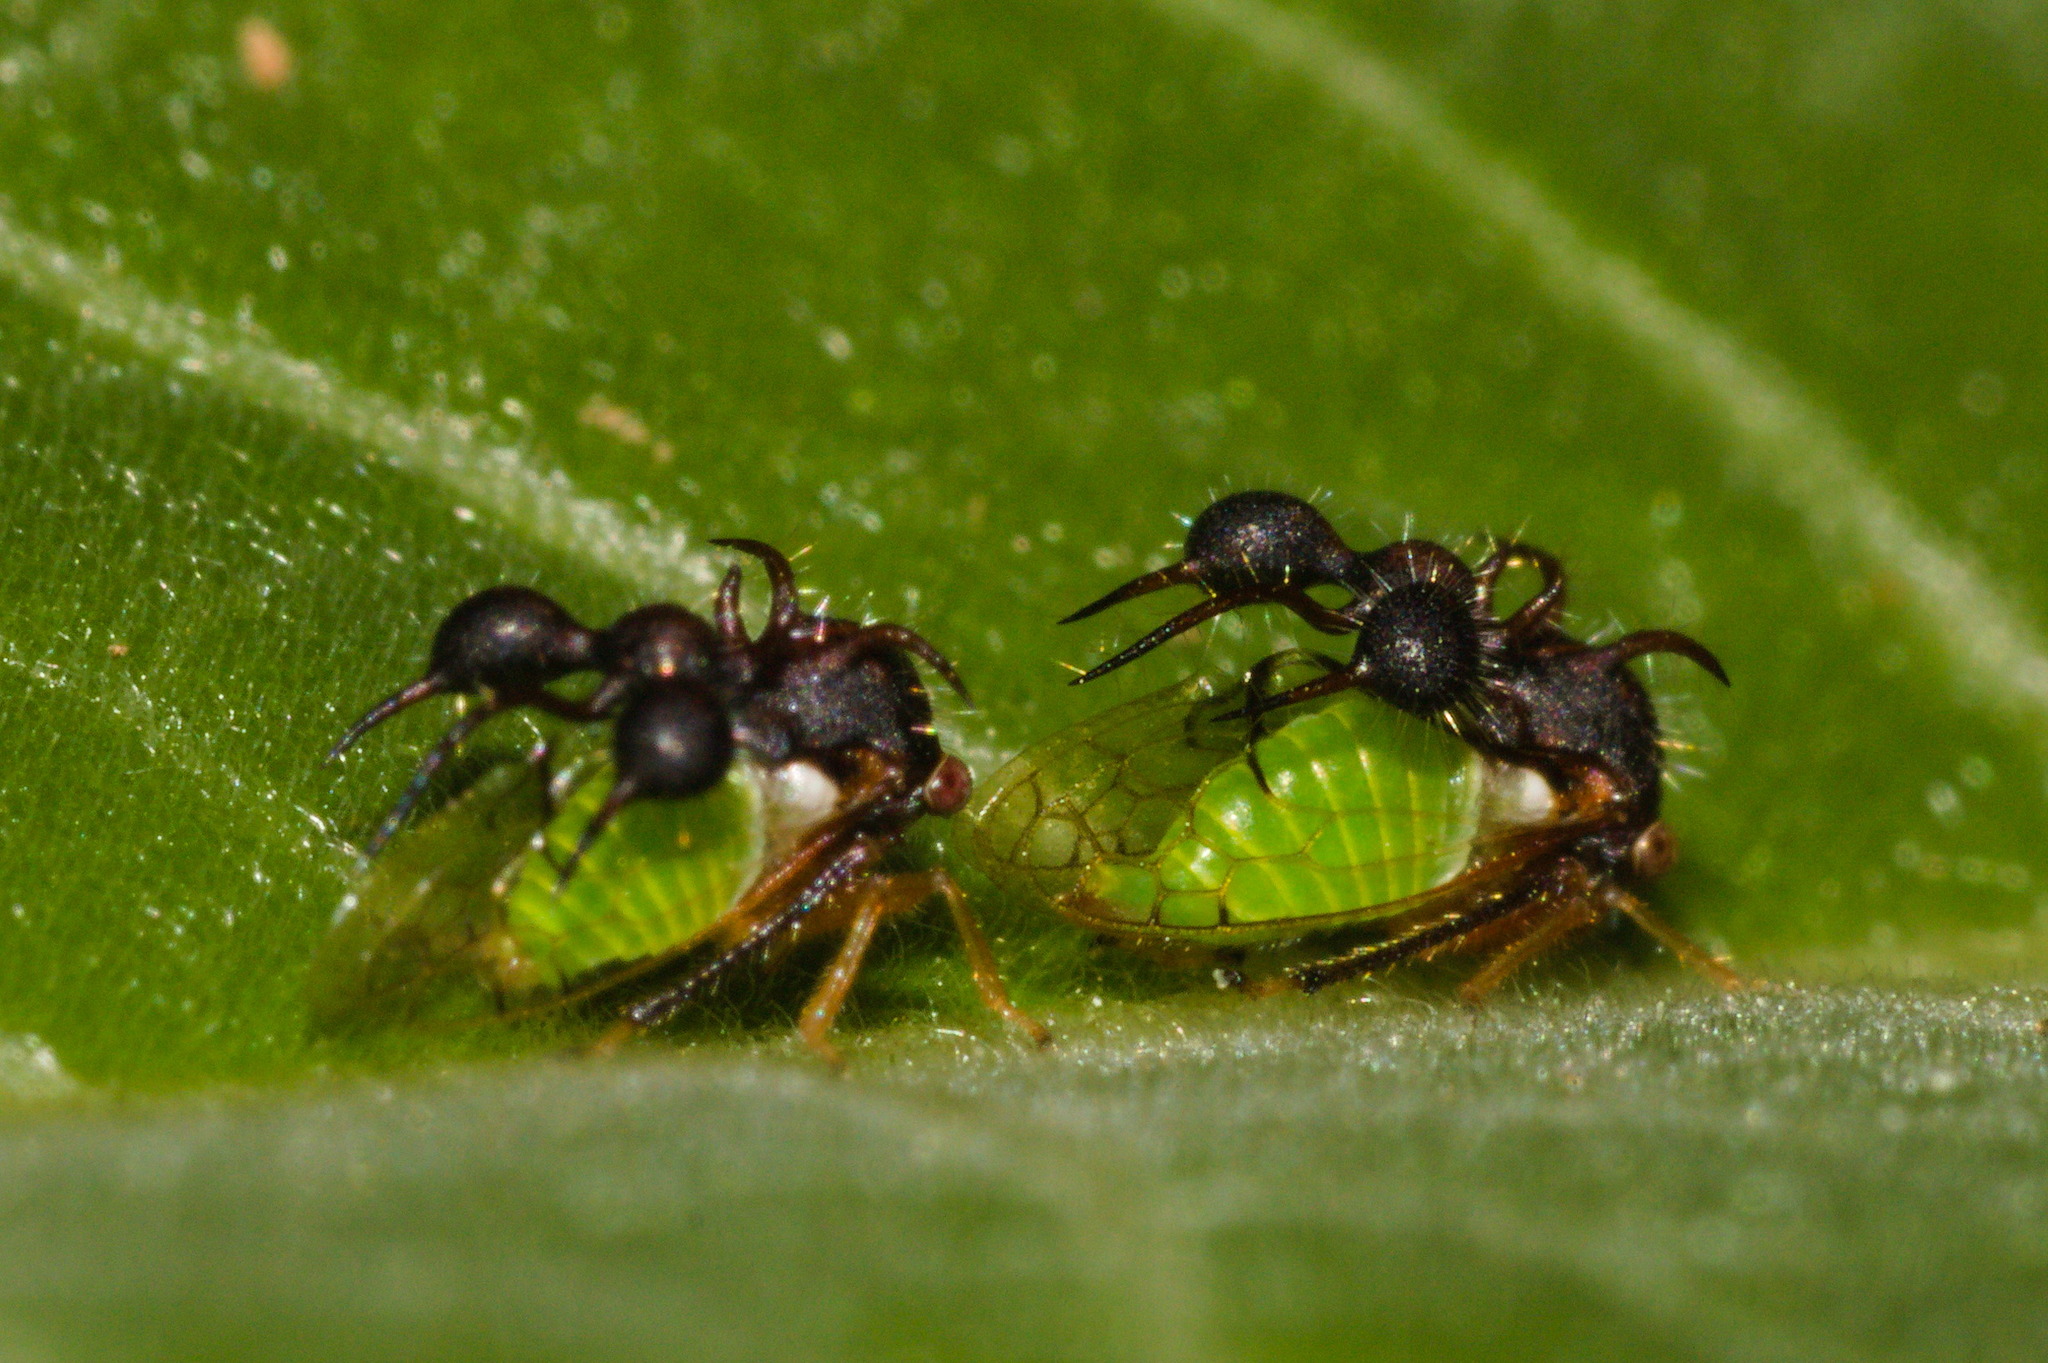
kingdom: Animalia
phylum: Arthropoda
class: Insecta
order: Hemiptera
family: Membracidae
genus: Cyphonia
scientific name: Cyphonia clavata
